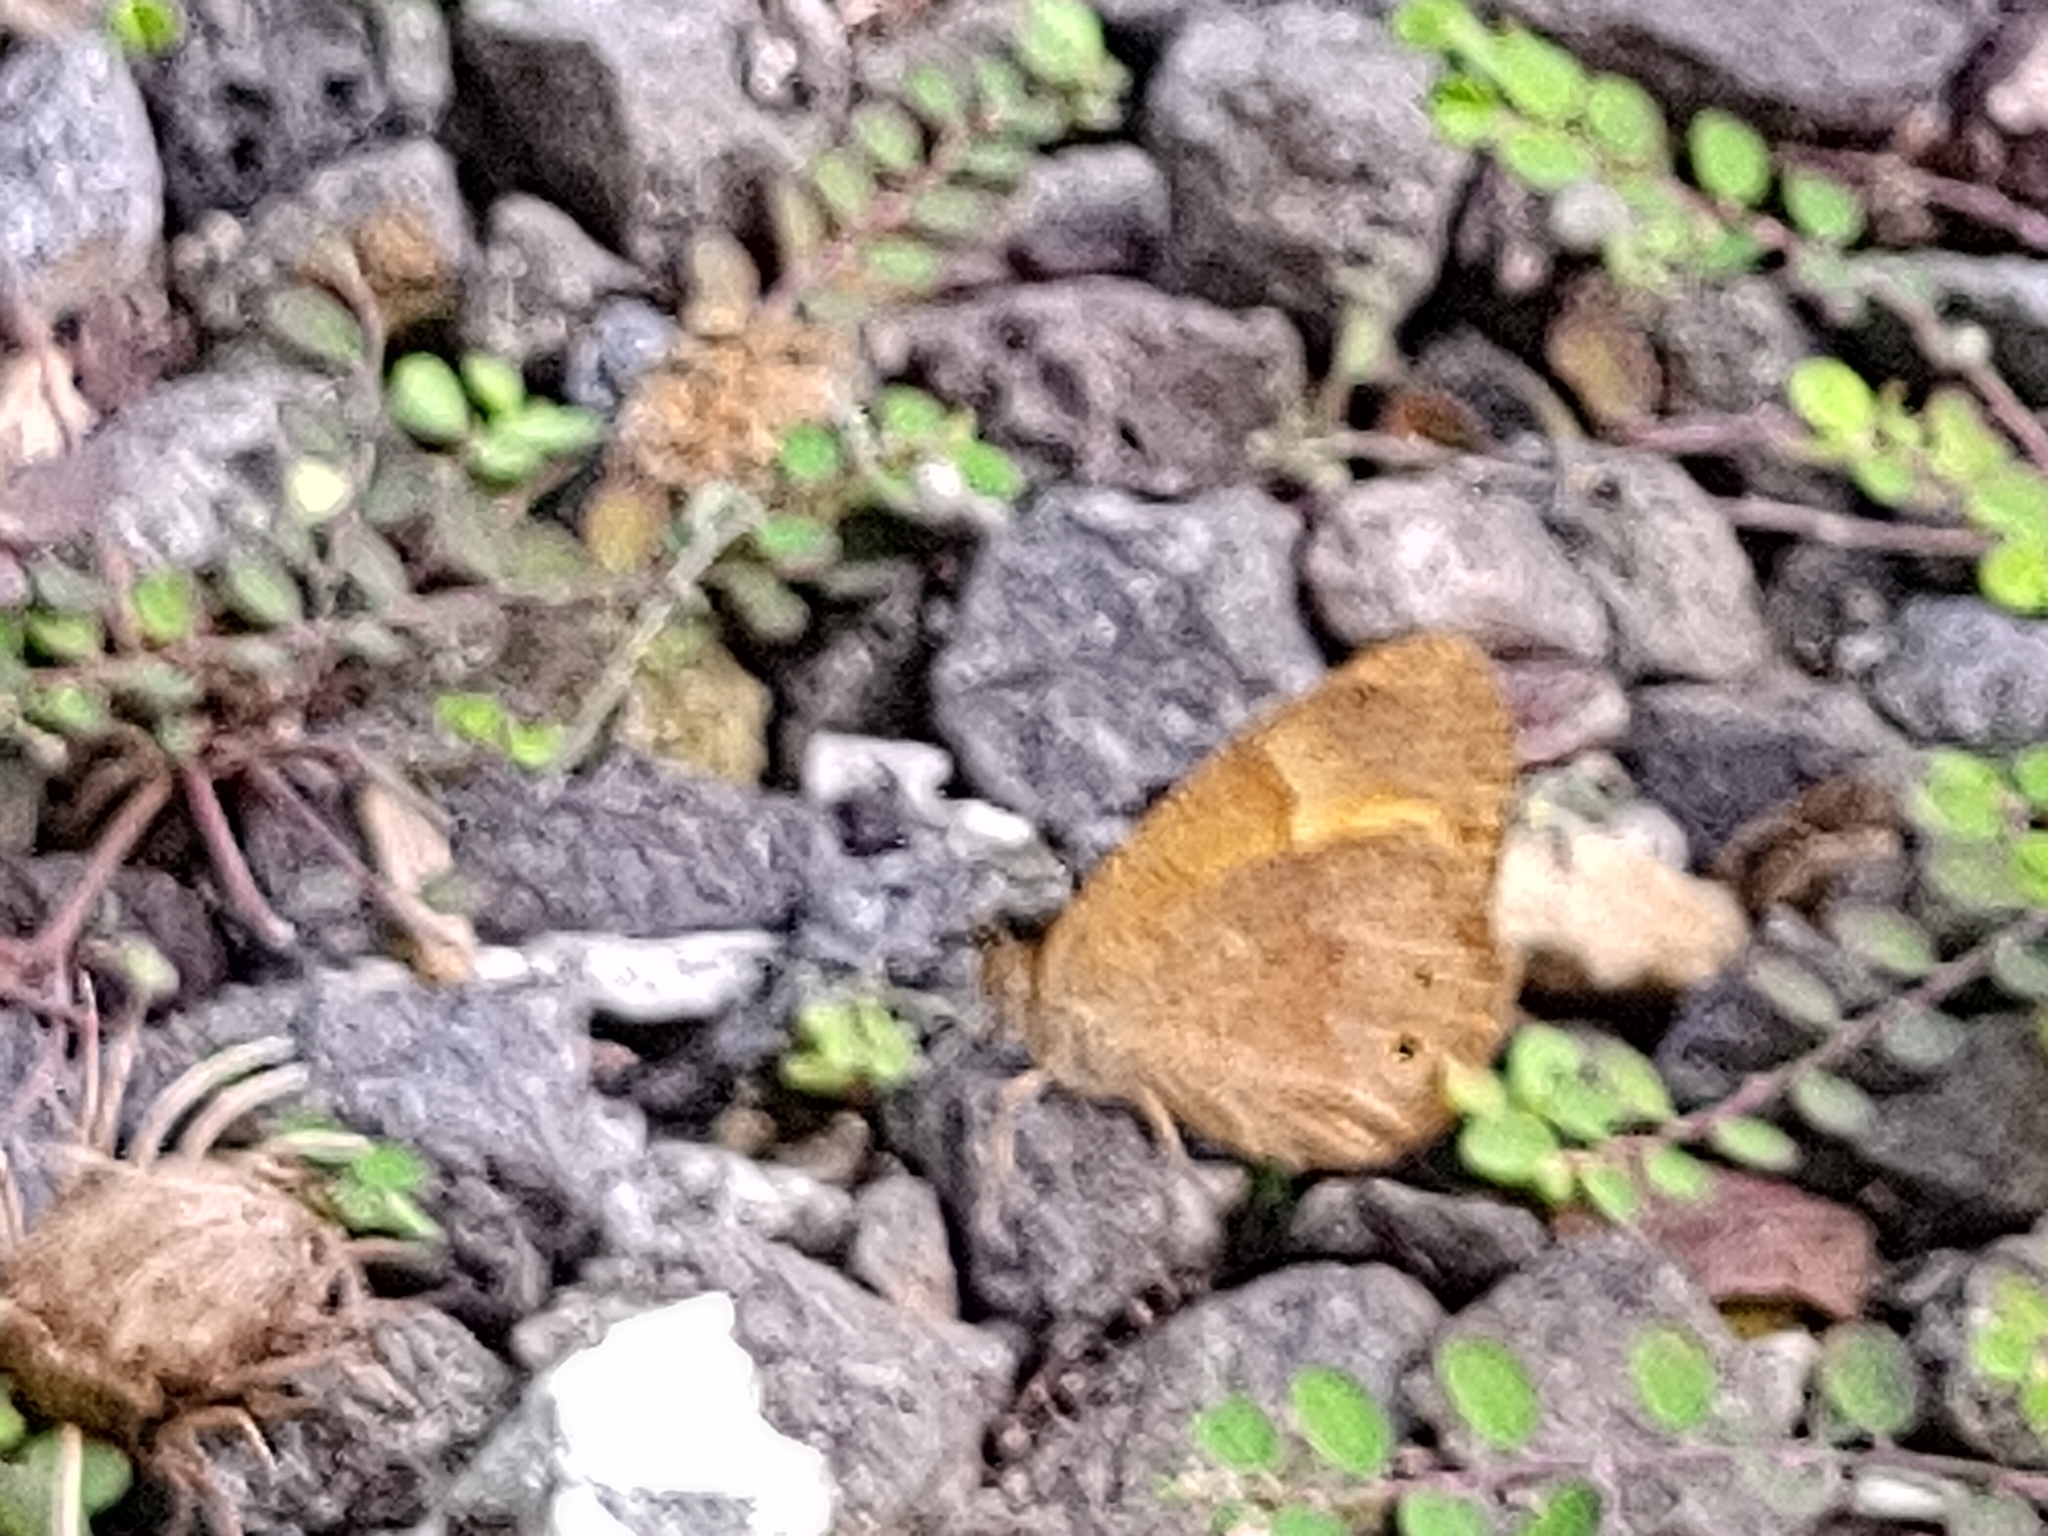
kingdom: Animalia
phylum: Arthropoda
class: Insecta
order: Lepidoptera
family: Nymphalidae
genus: Henotesia
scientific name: Henotesia narcissus
